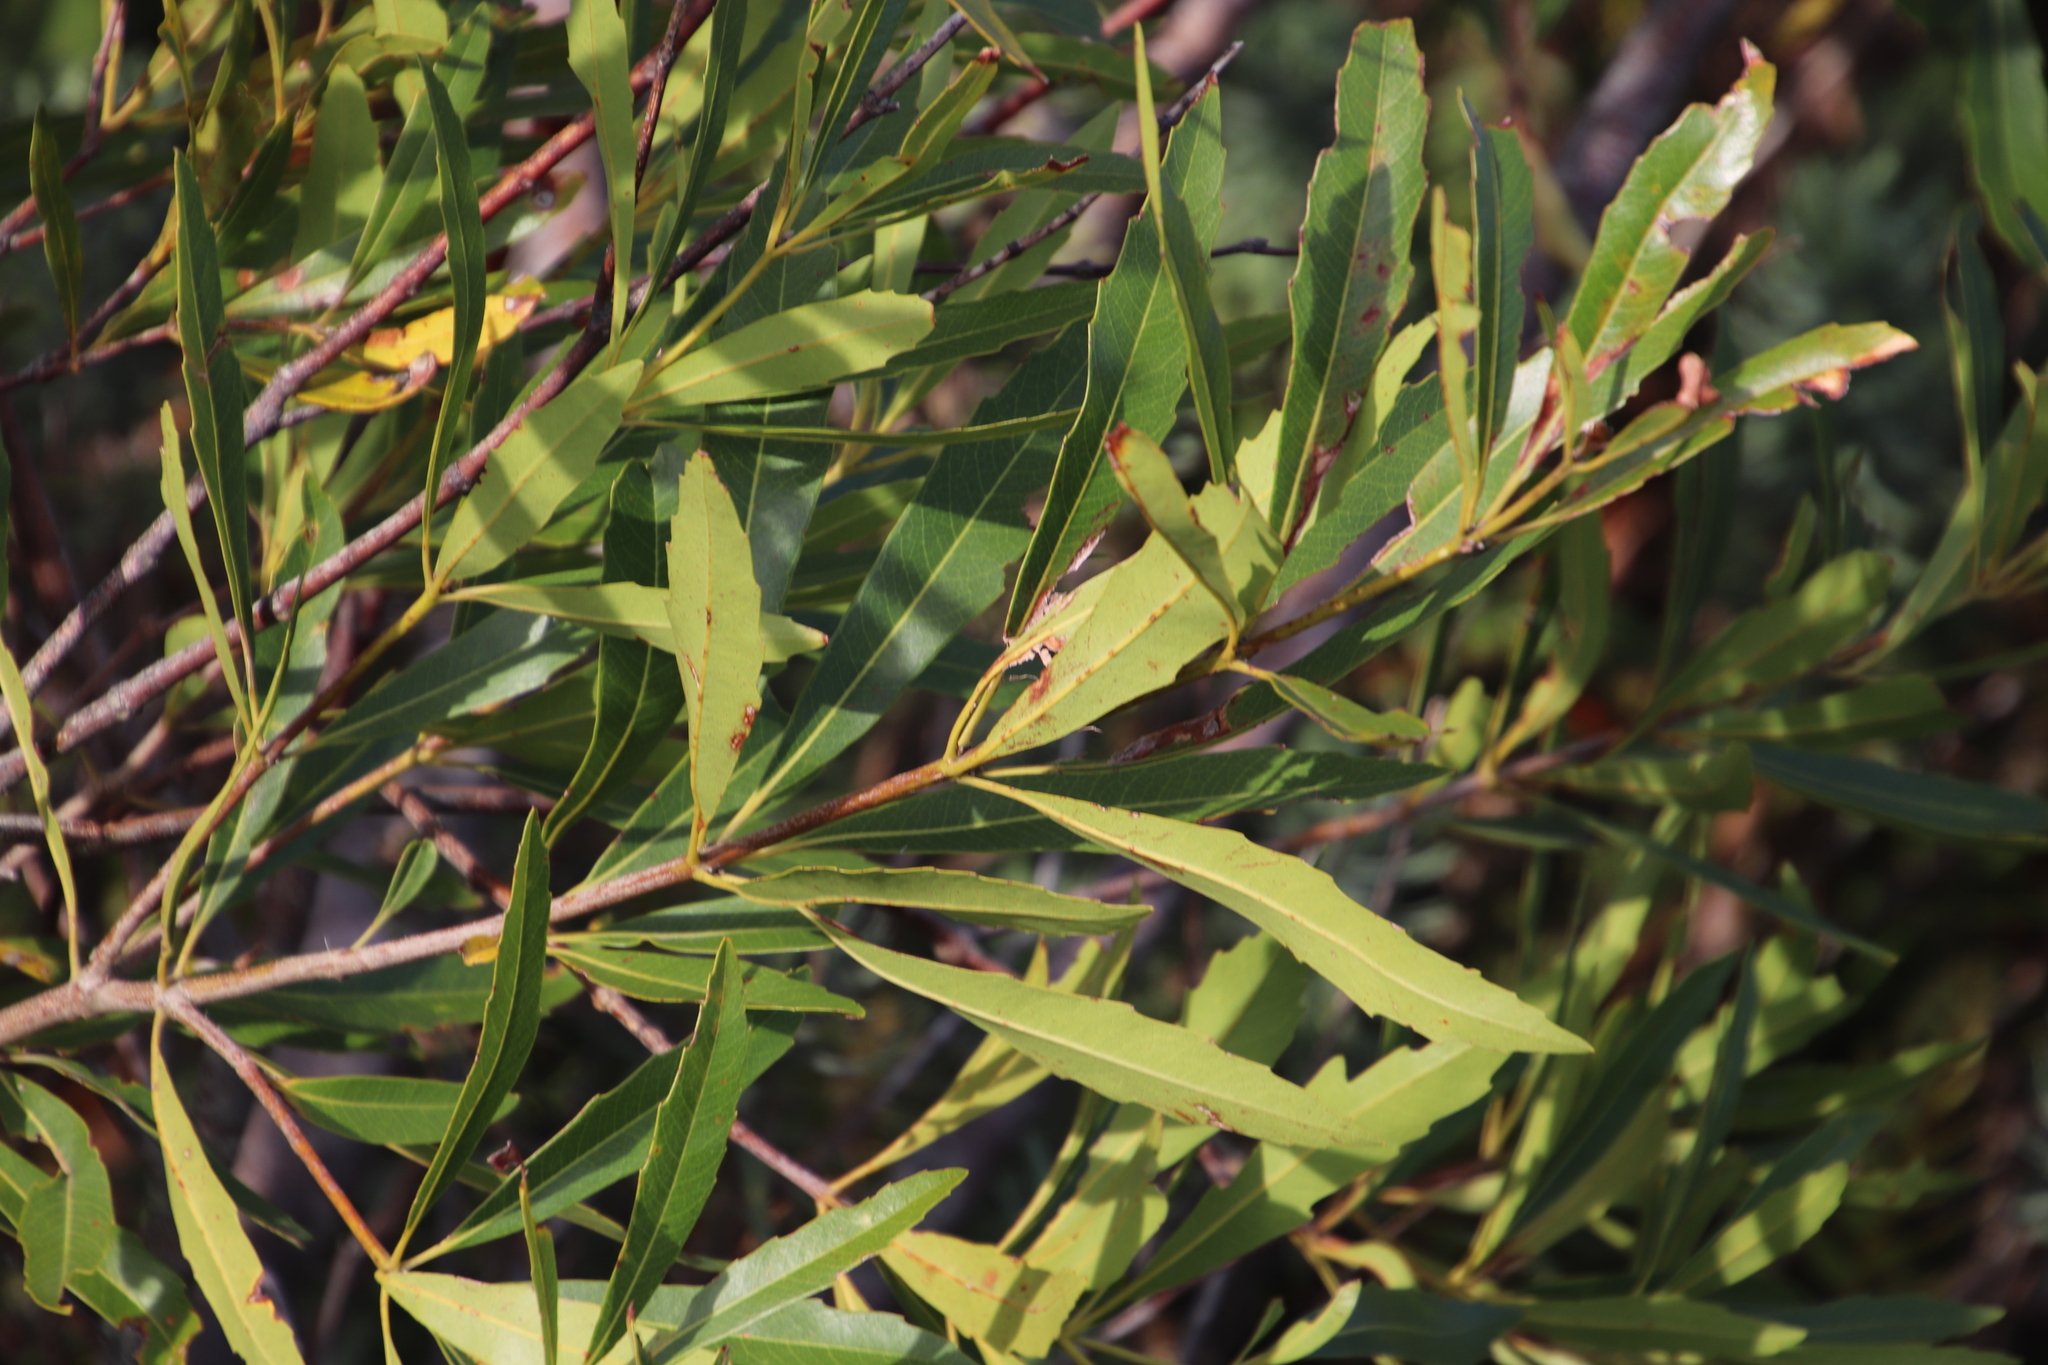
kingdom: Plantae
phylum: Tracheophyta
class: Magnoliopsida
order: Proteales
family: Proteaceae
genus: Brabejum
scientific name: Brabejum stellatifolium
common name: Wild almond
